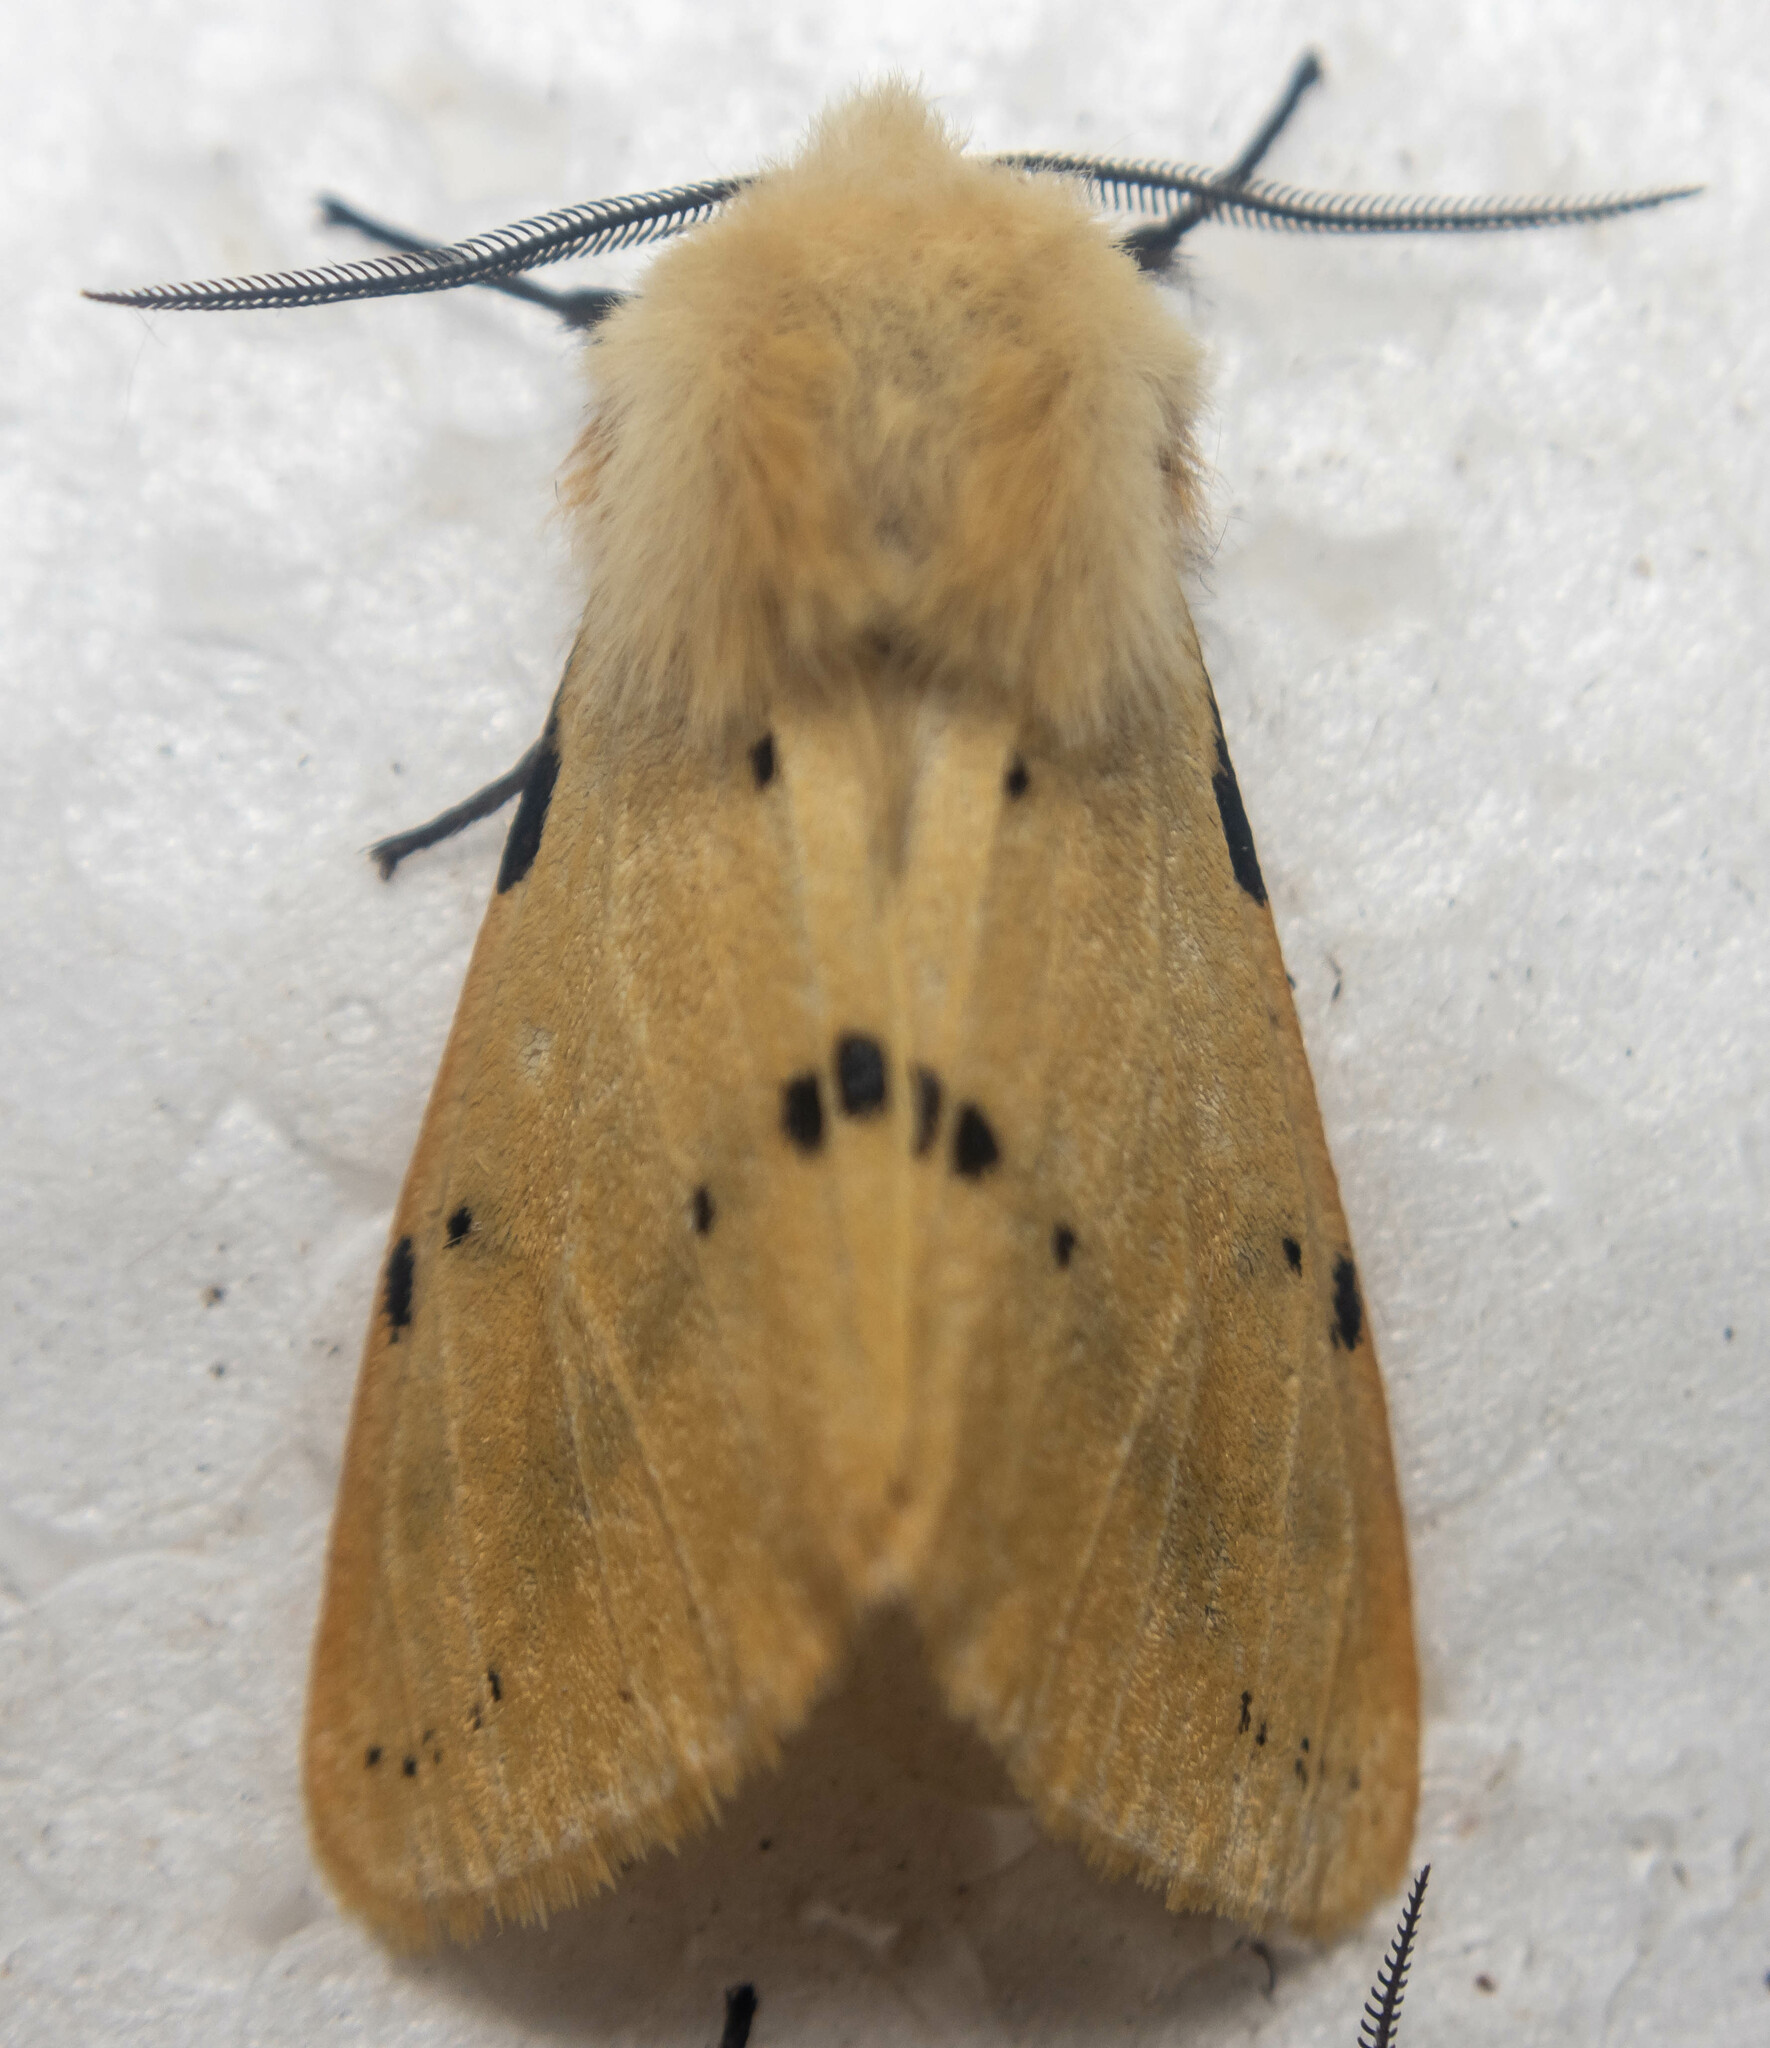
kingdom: Animalia
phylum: Arthropoda
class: Insecta
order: Lepidoptera
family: Erebidae
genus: Spilarctia
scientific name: Spilarctia lutea
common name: Buff ermine
